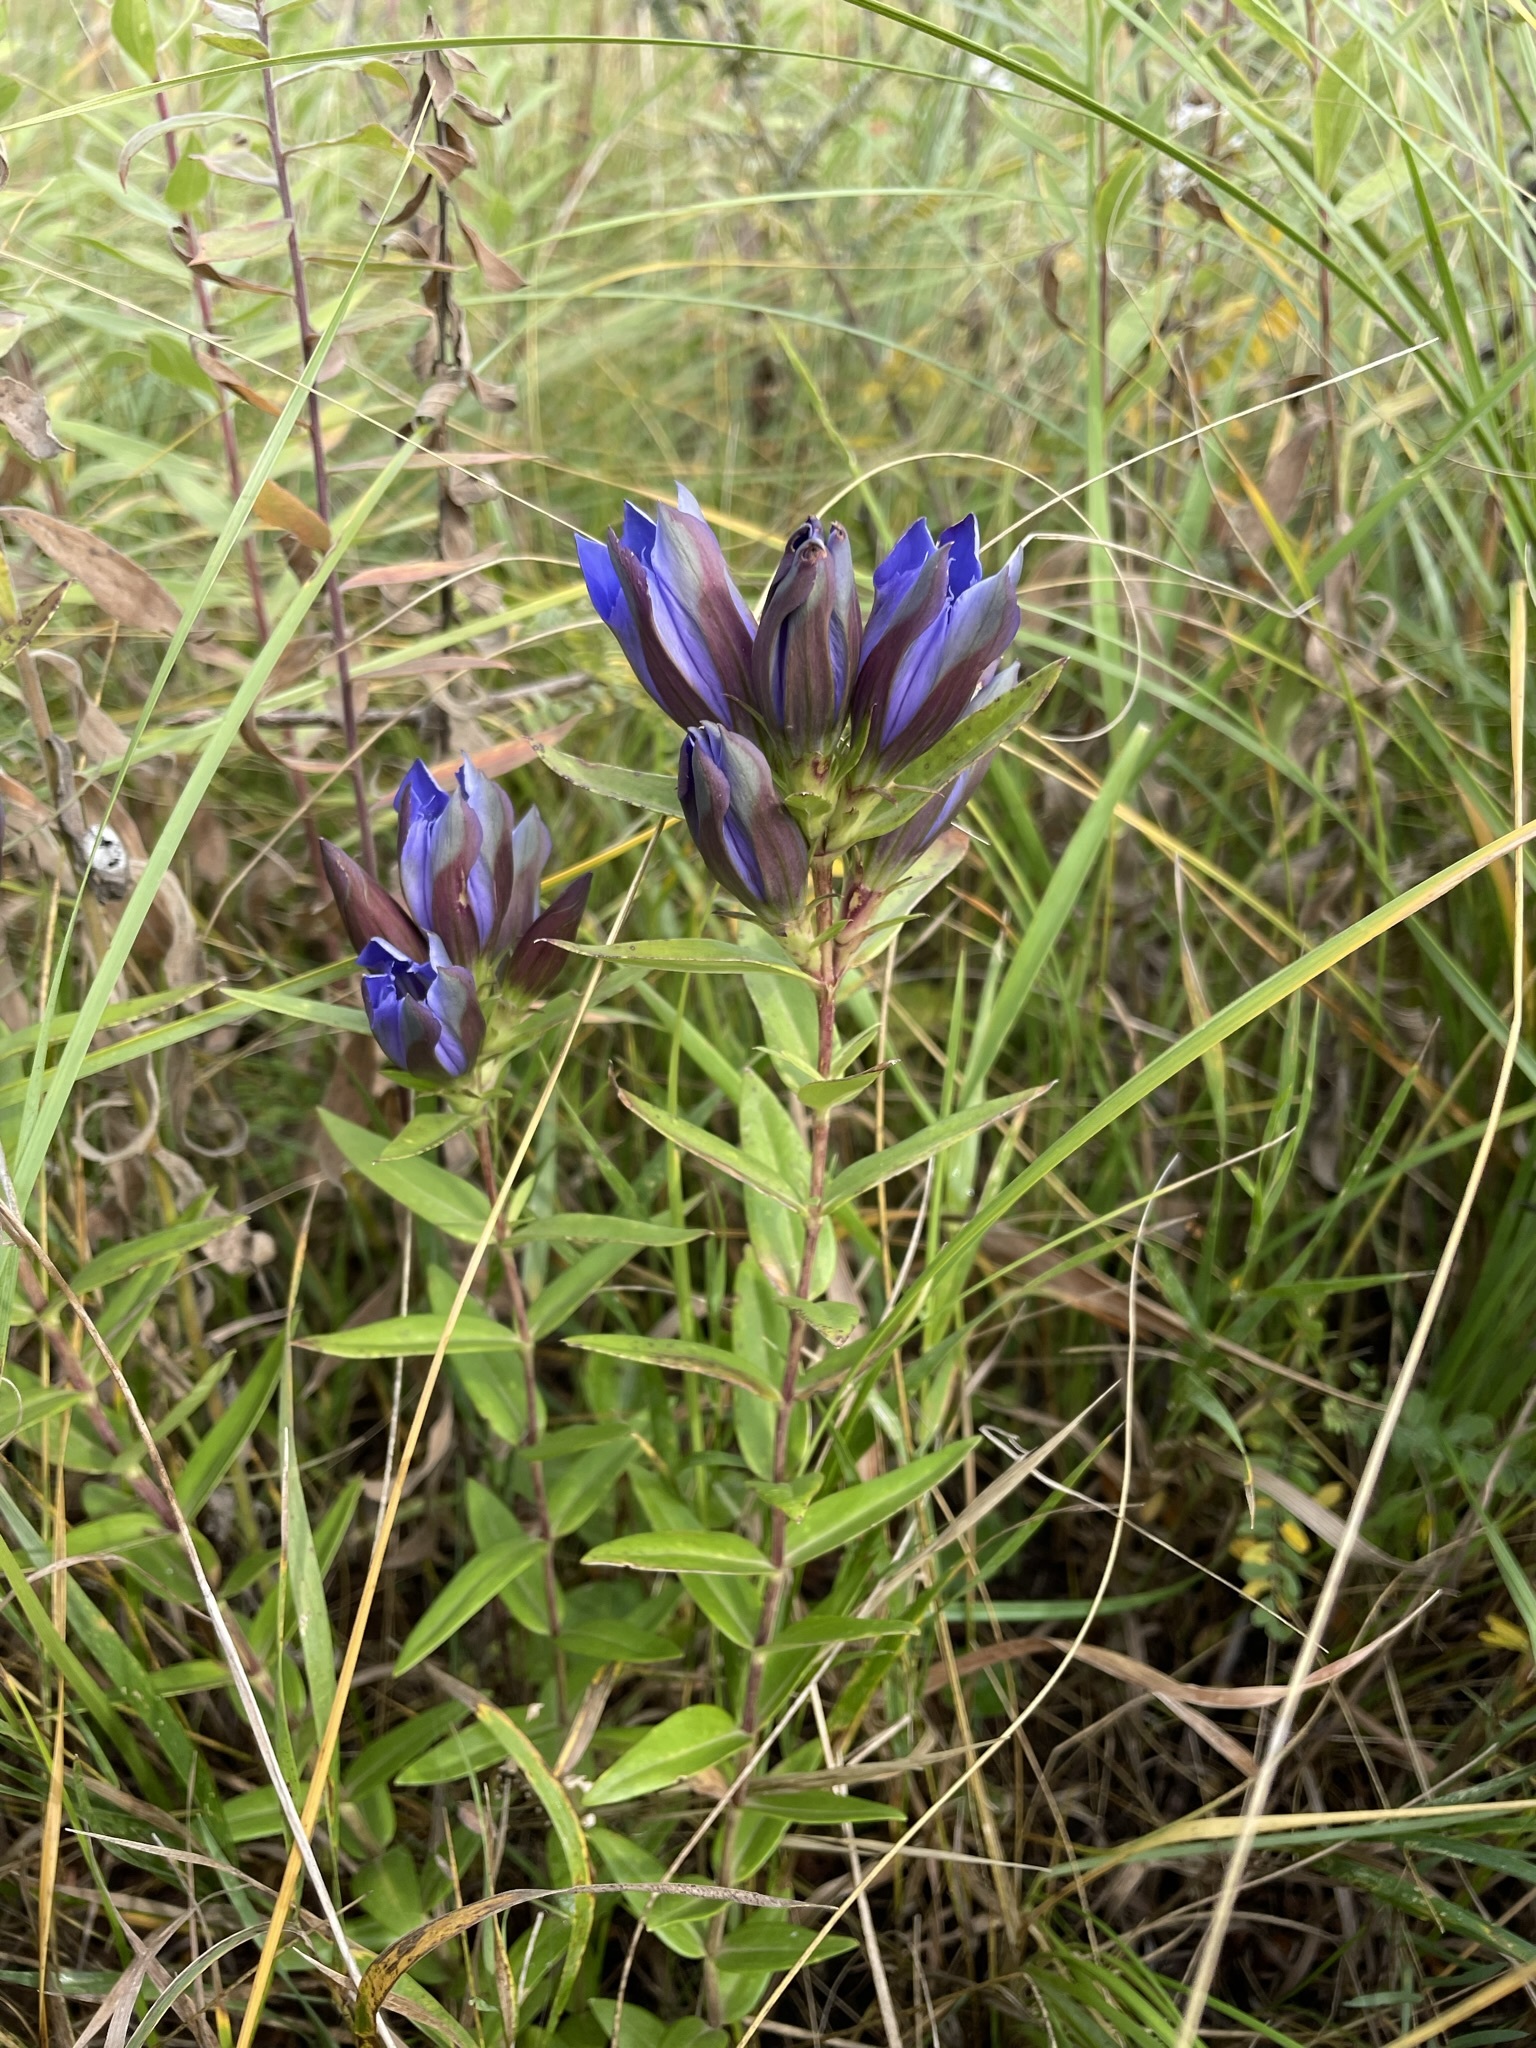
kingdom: Plantae
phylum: Tracheophyta
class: Magnoliopsida
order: Gentianales
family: Gentianaceae
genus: Gentiana
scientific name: Gentiana puberulenta
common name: Downy gentian
